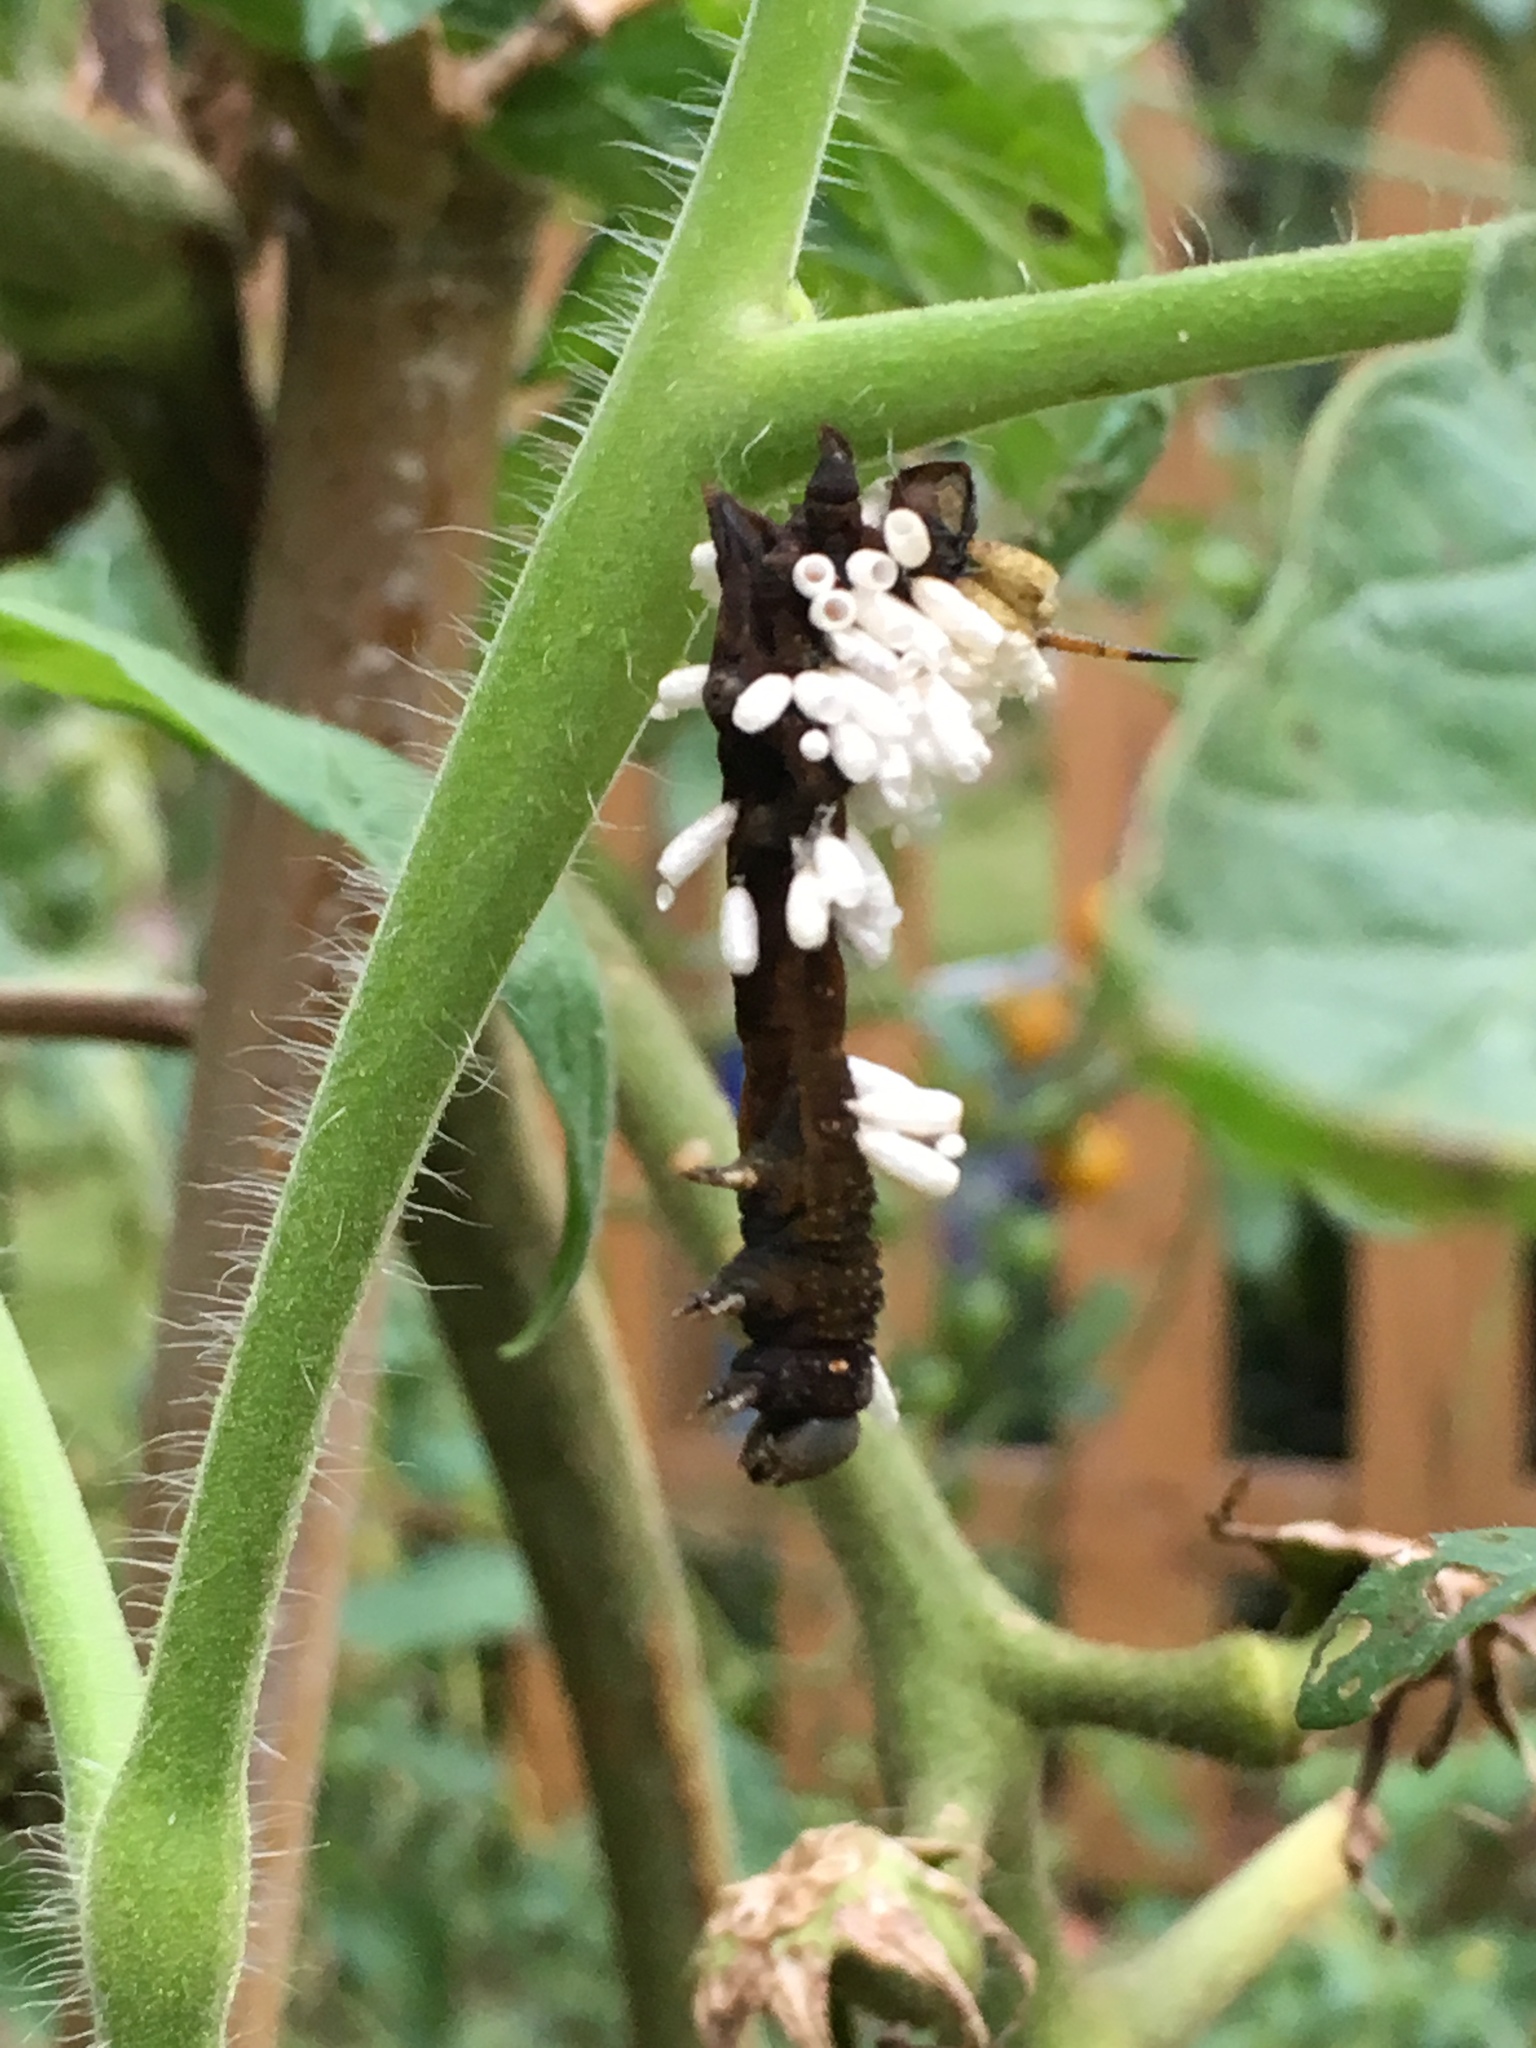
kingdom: Animalia
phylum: Arthropoda
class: Insecta
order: Hymenoptera
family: Braconidae
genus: Cotesia
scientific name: Cotesia congregata
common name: Hornworm parasitoid wasp
